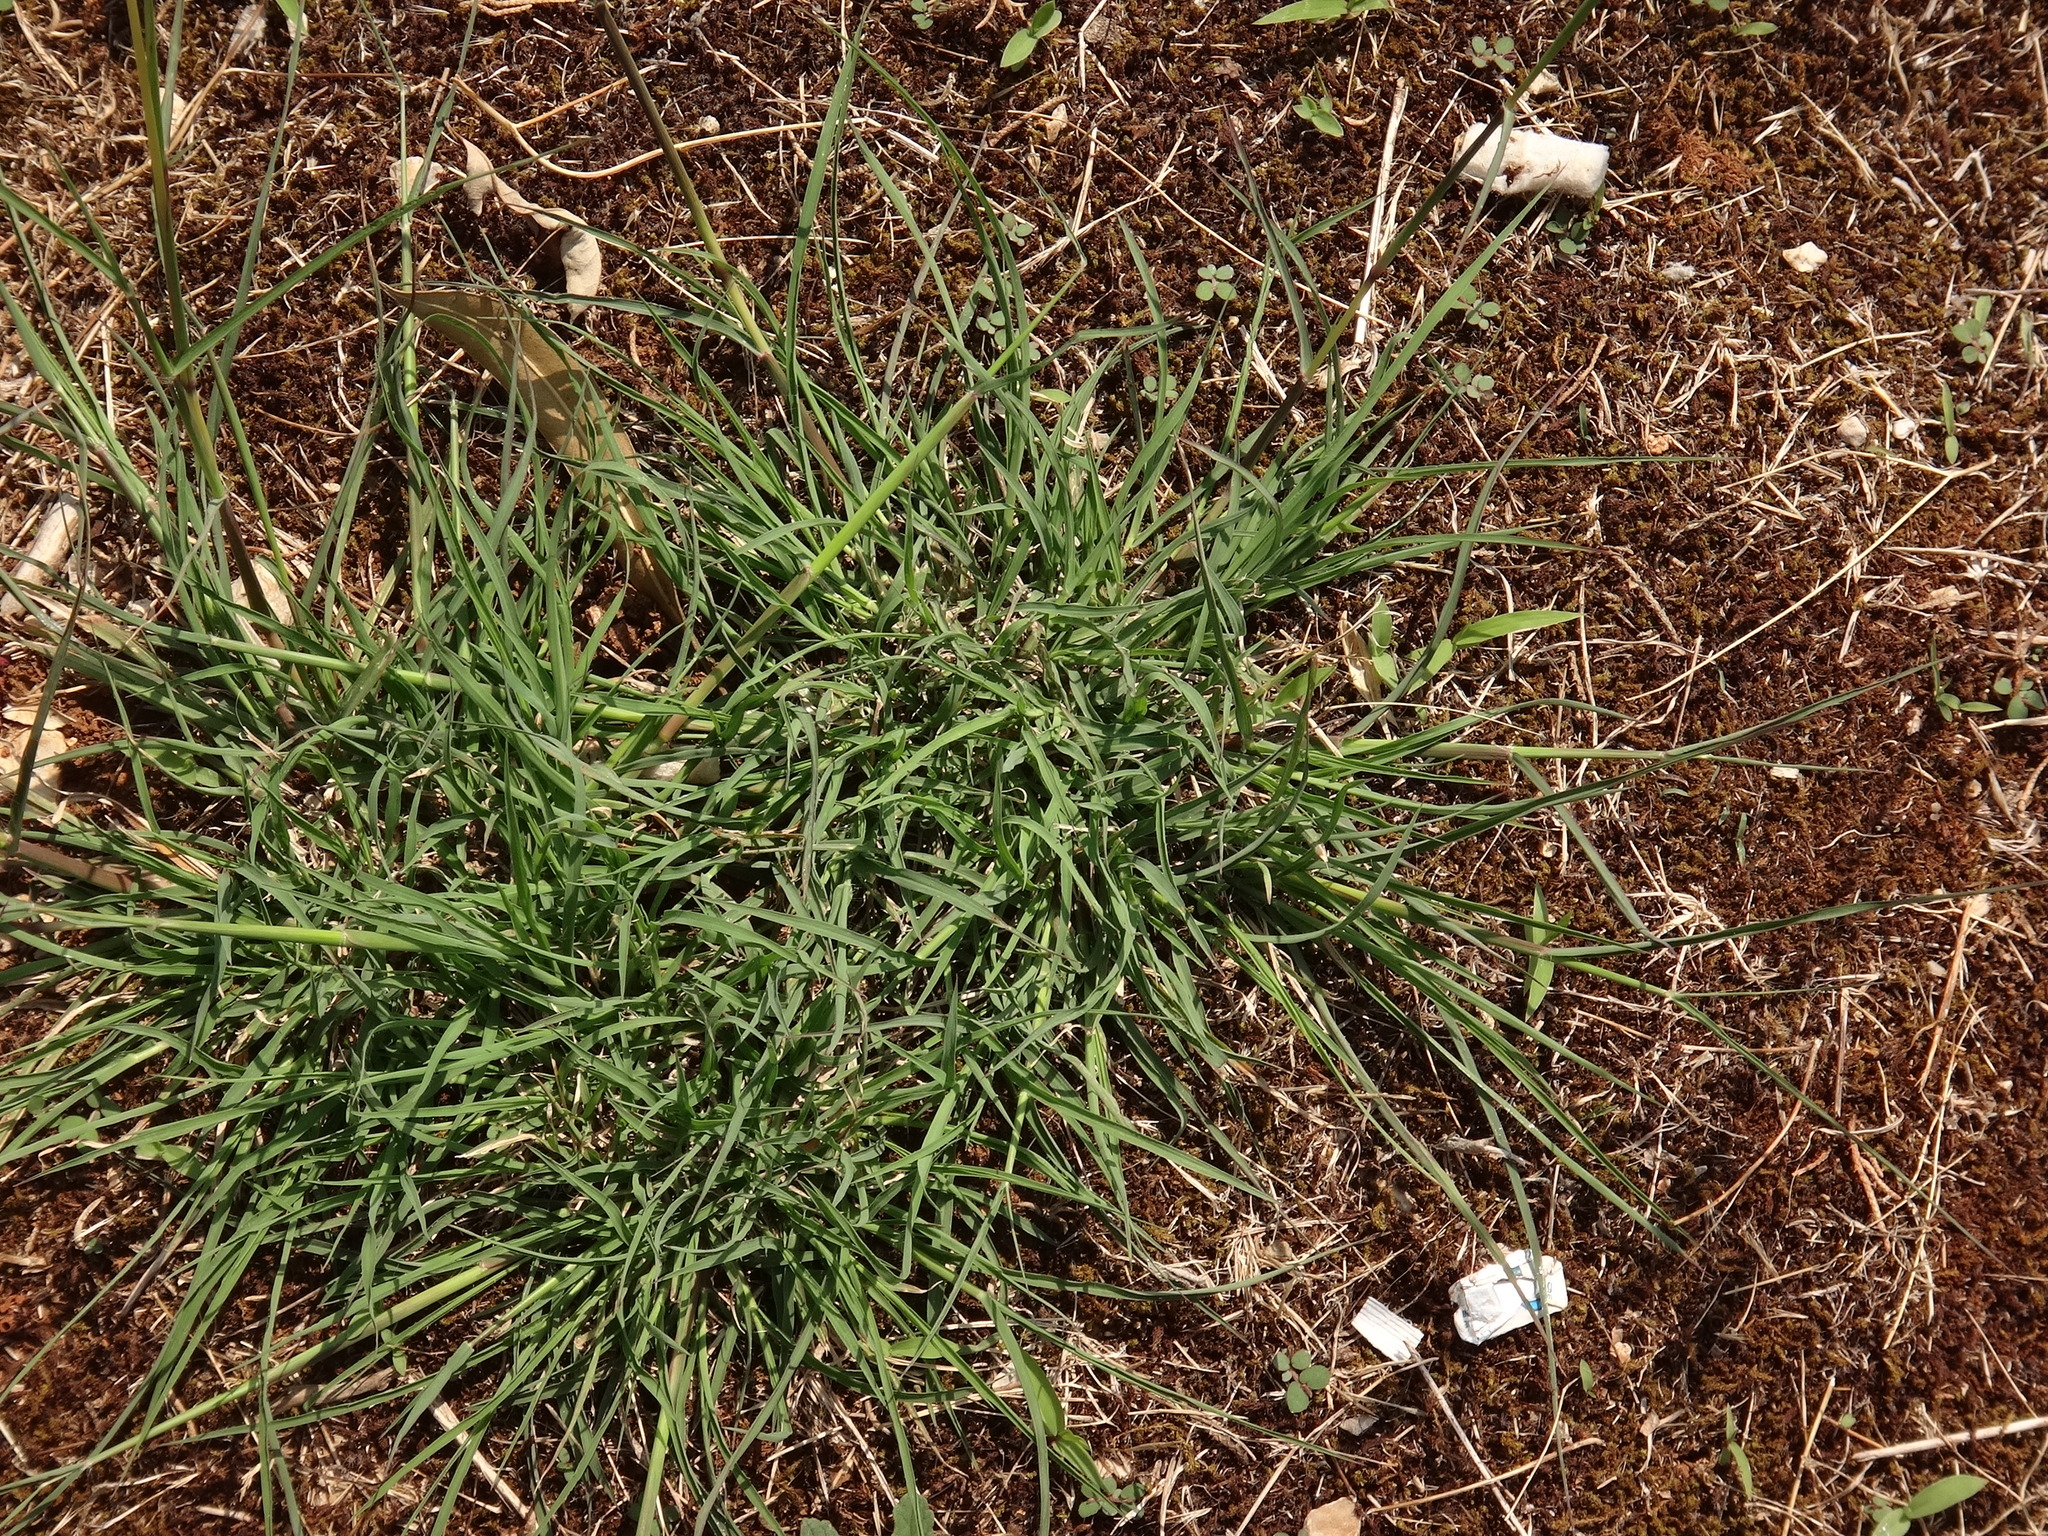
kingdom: Plantae
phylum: Tracheophyta
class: Liliopsida
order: Poales
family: Poaceae
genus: Bothriochloa
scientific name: Bothriochloa ischaemum
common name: Yellow bluestem
